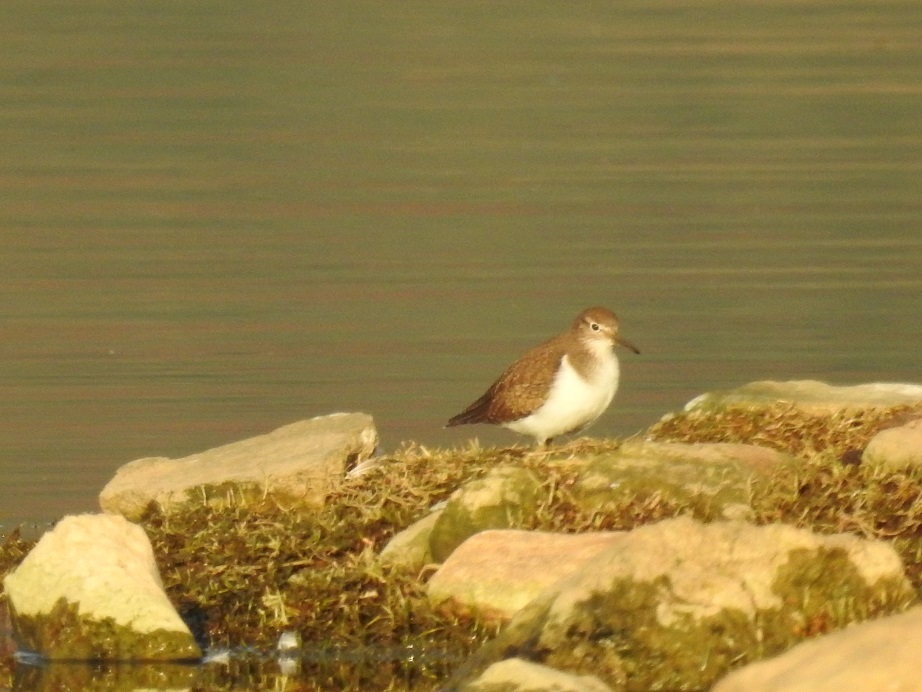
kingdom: Animalia
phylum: Chordata
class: Aves
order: Charadriiformes
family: Scolopacidae
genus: Actitis
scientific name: Actitis hypoleucos
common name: Common sandpiper
